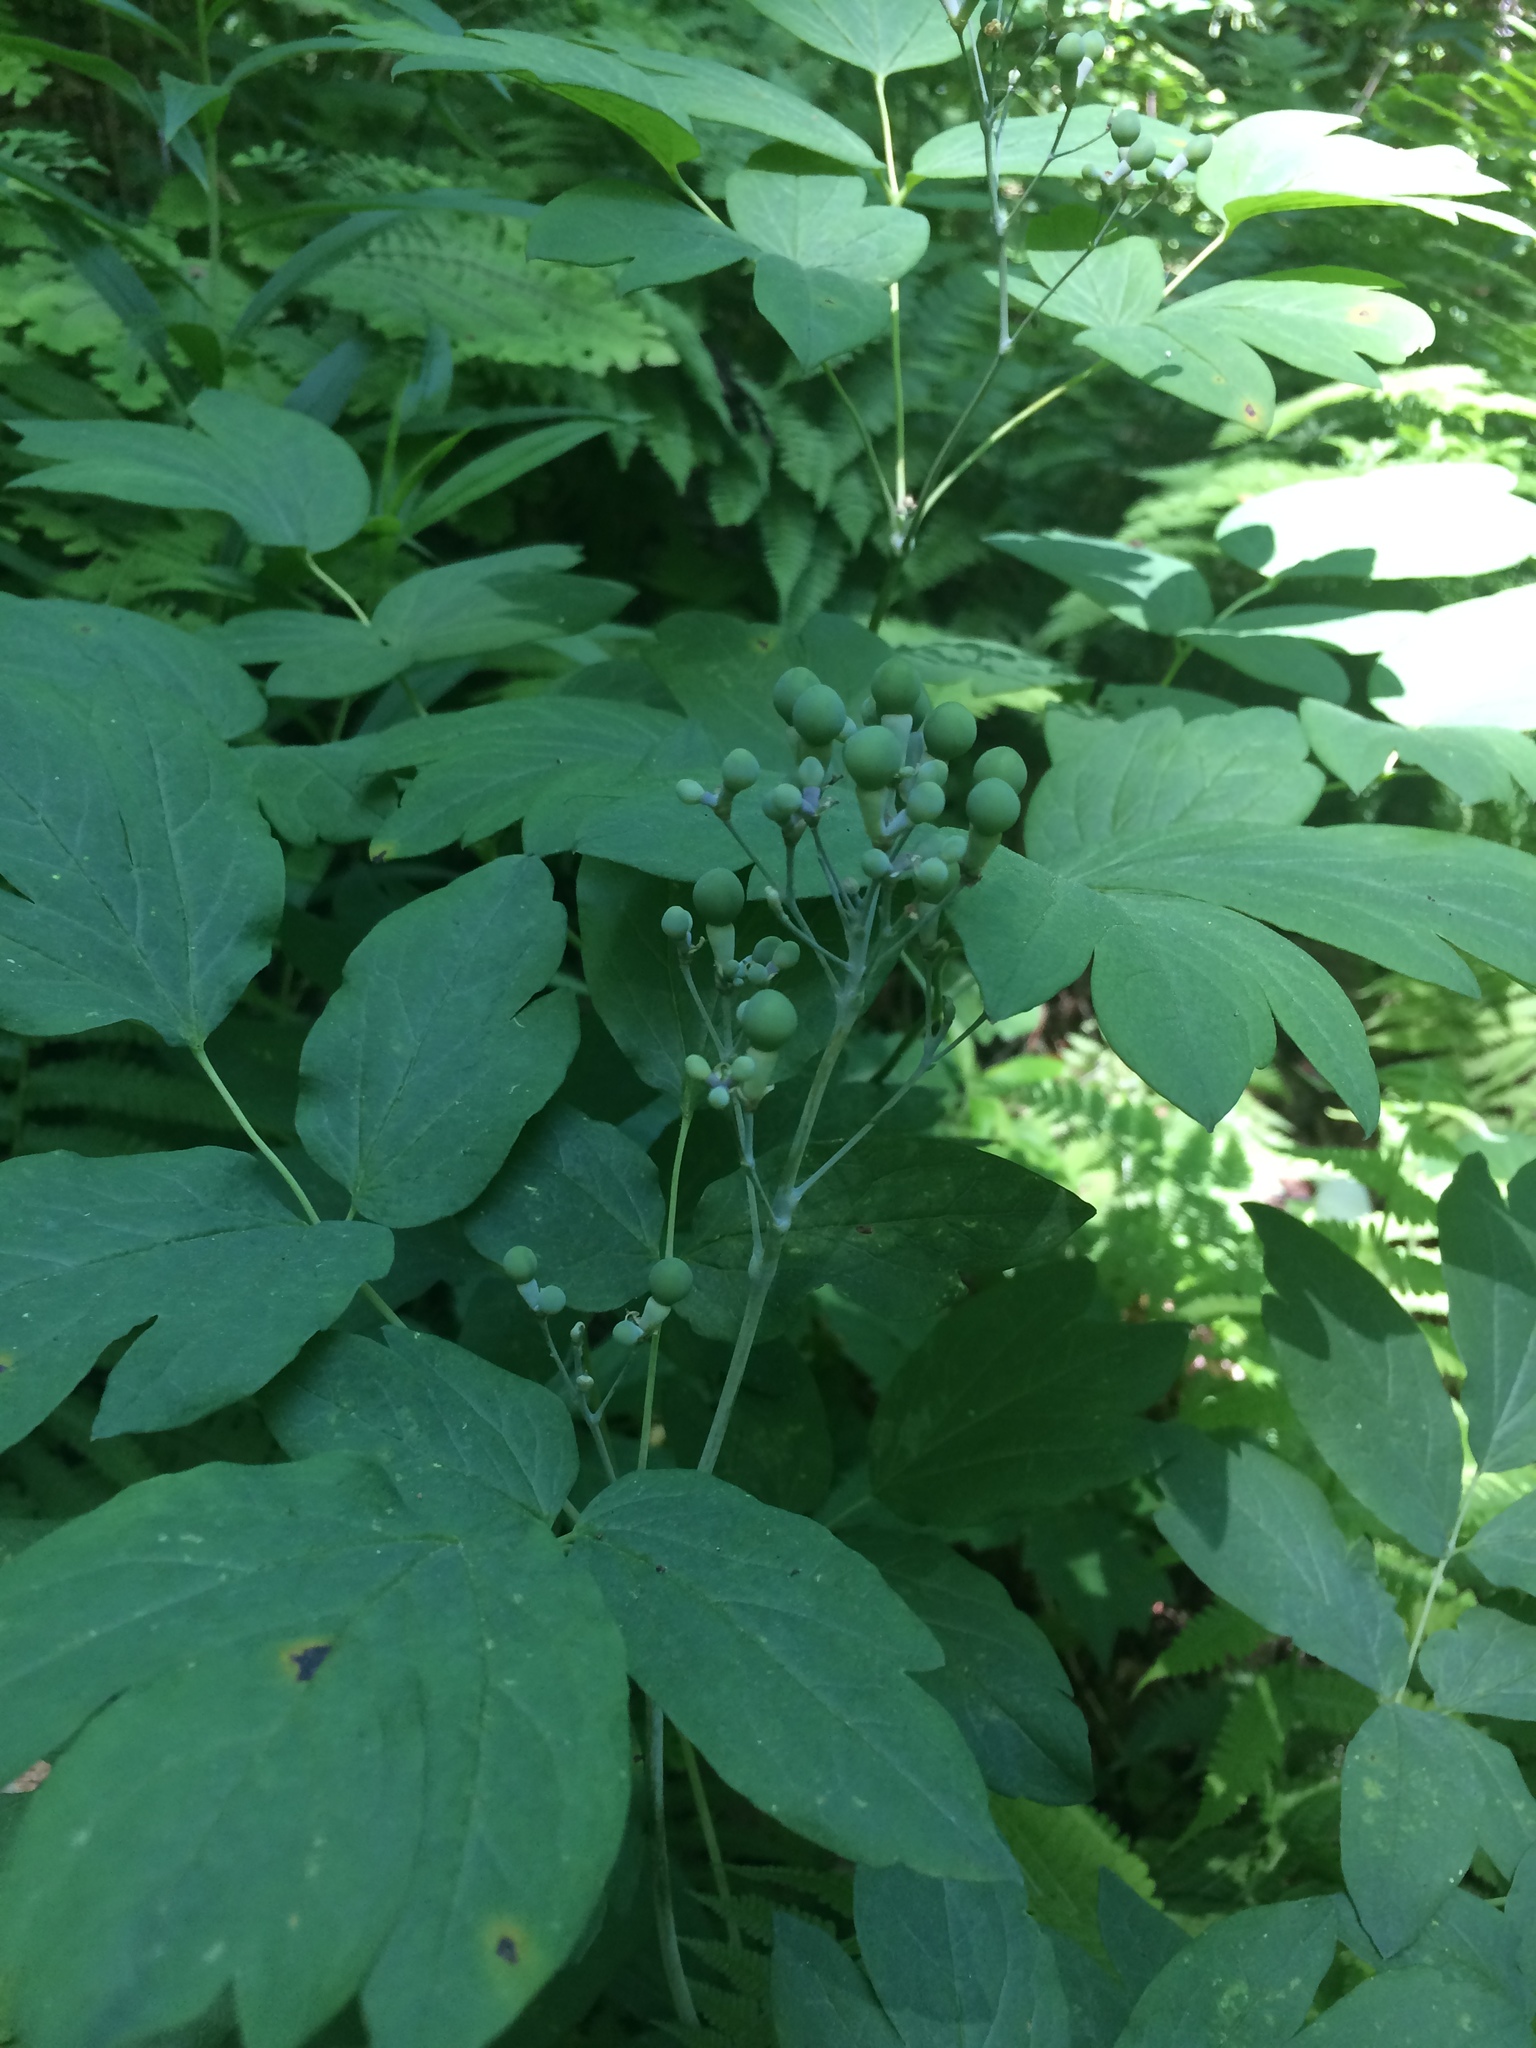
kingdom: Plantae
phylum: Tracheophyta
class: Magnoliopsida
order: Ranunculales
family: Berberidaceae
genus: Caulophyllum
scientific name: Caulophyllum thalictroides
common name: Blue cohosh
